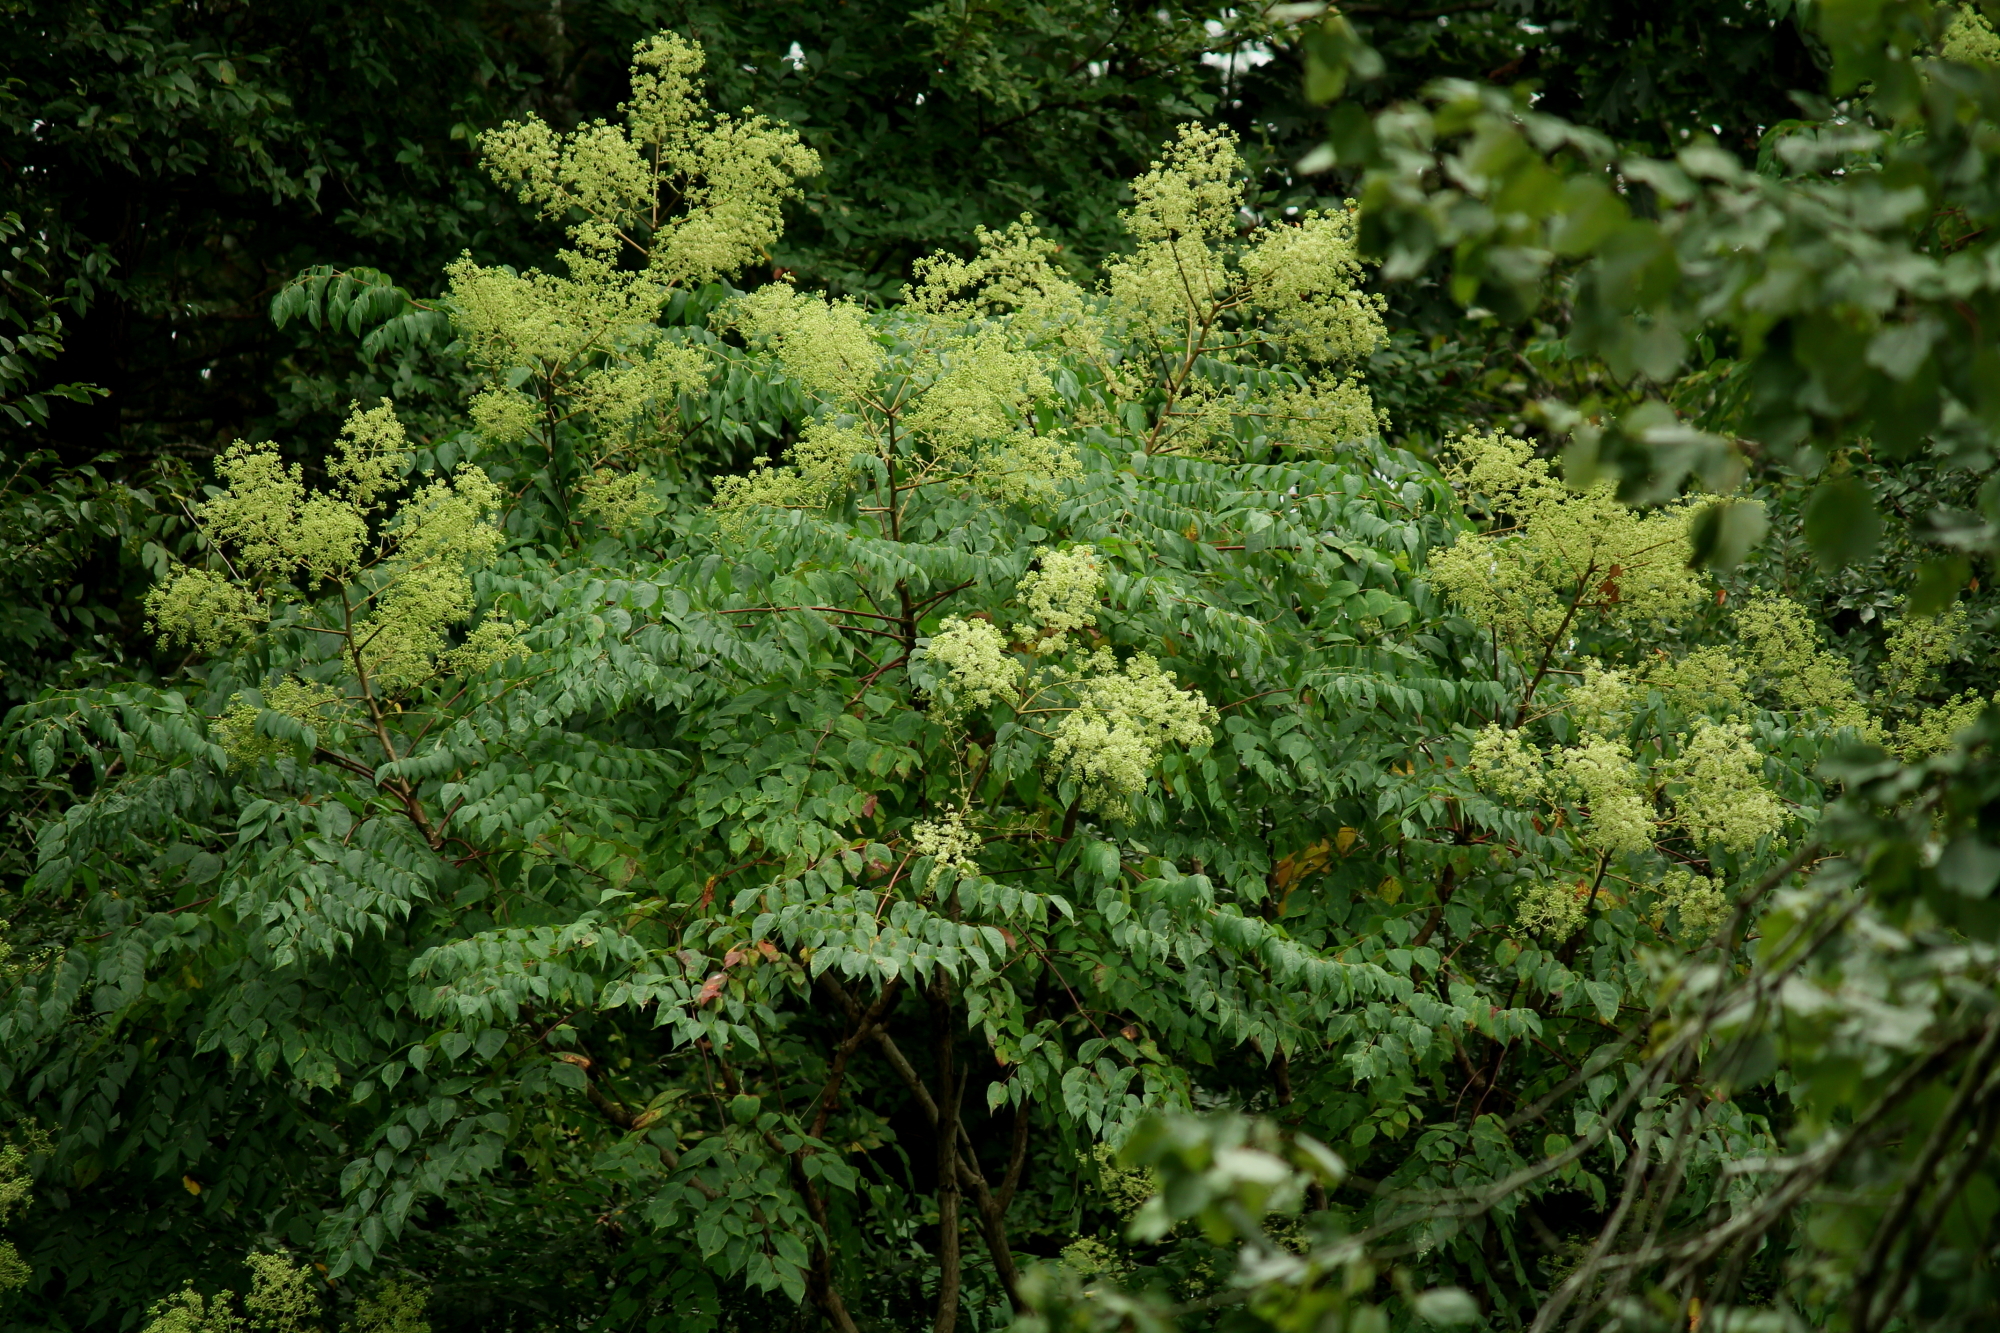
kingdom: Plantae
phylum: Tracheophyta
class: Magnoliopsida
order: Apiales
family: Araliaceae
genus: Aralia
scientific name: Aralia spinosa
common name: Hercules'-club
